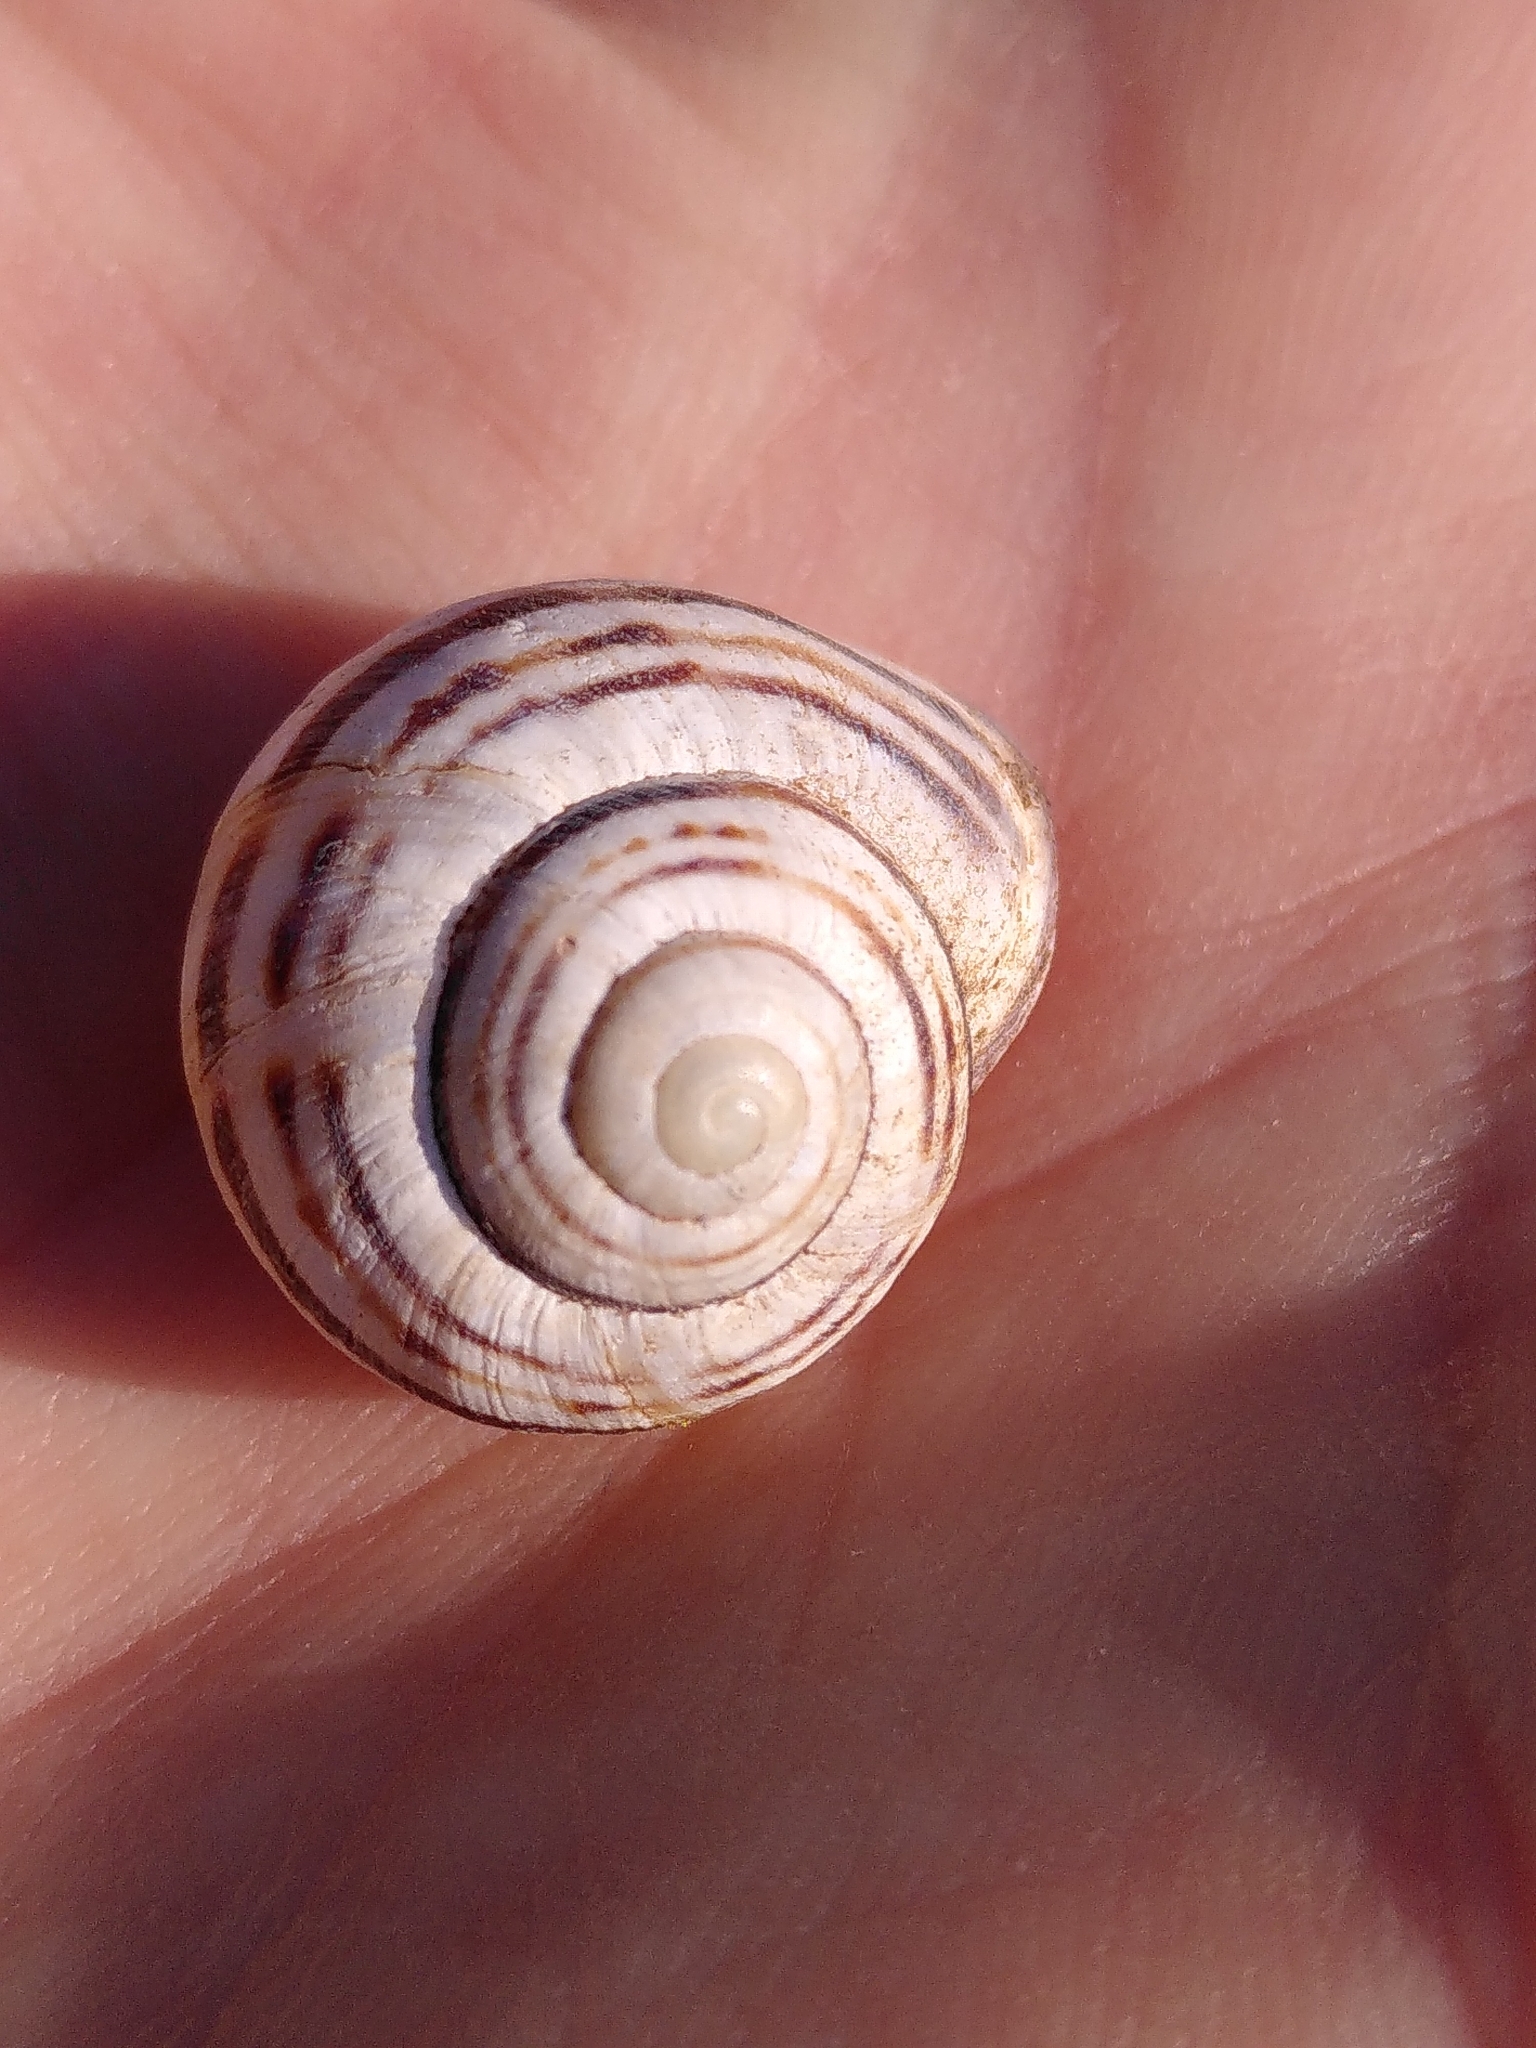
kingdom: Animalia
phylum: Mollusca
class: Gastropoda
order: Stylommatophora
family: Helicidae
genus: Cepaea
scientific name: Cepaea nemoralis
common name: Grovesnail
